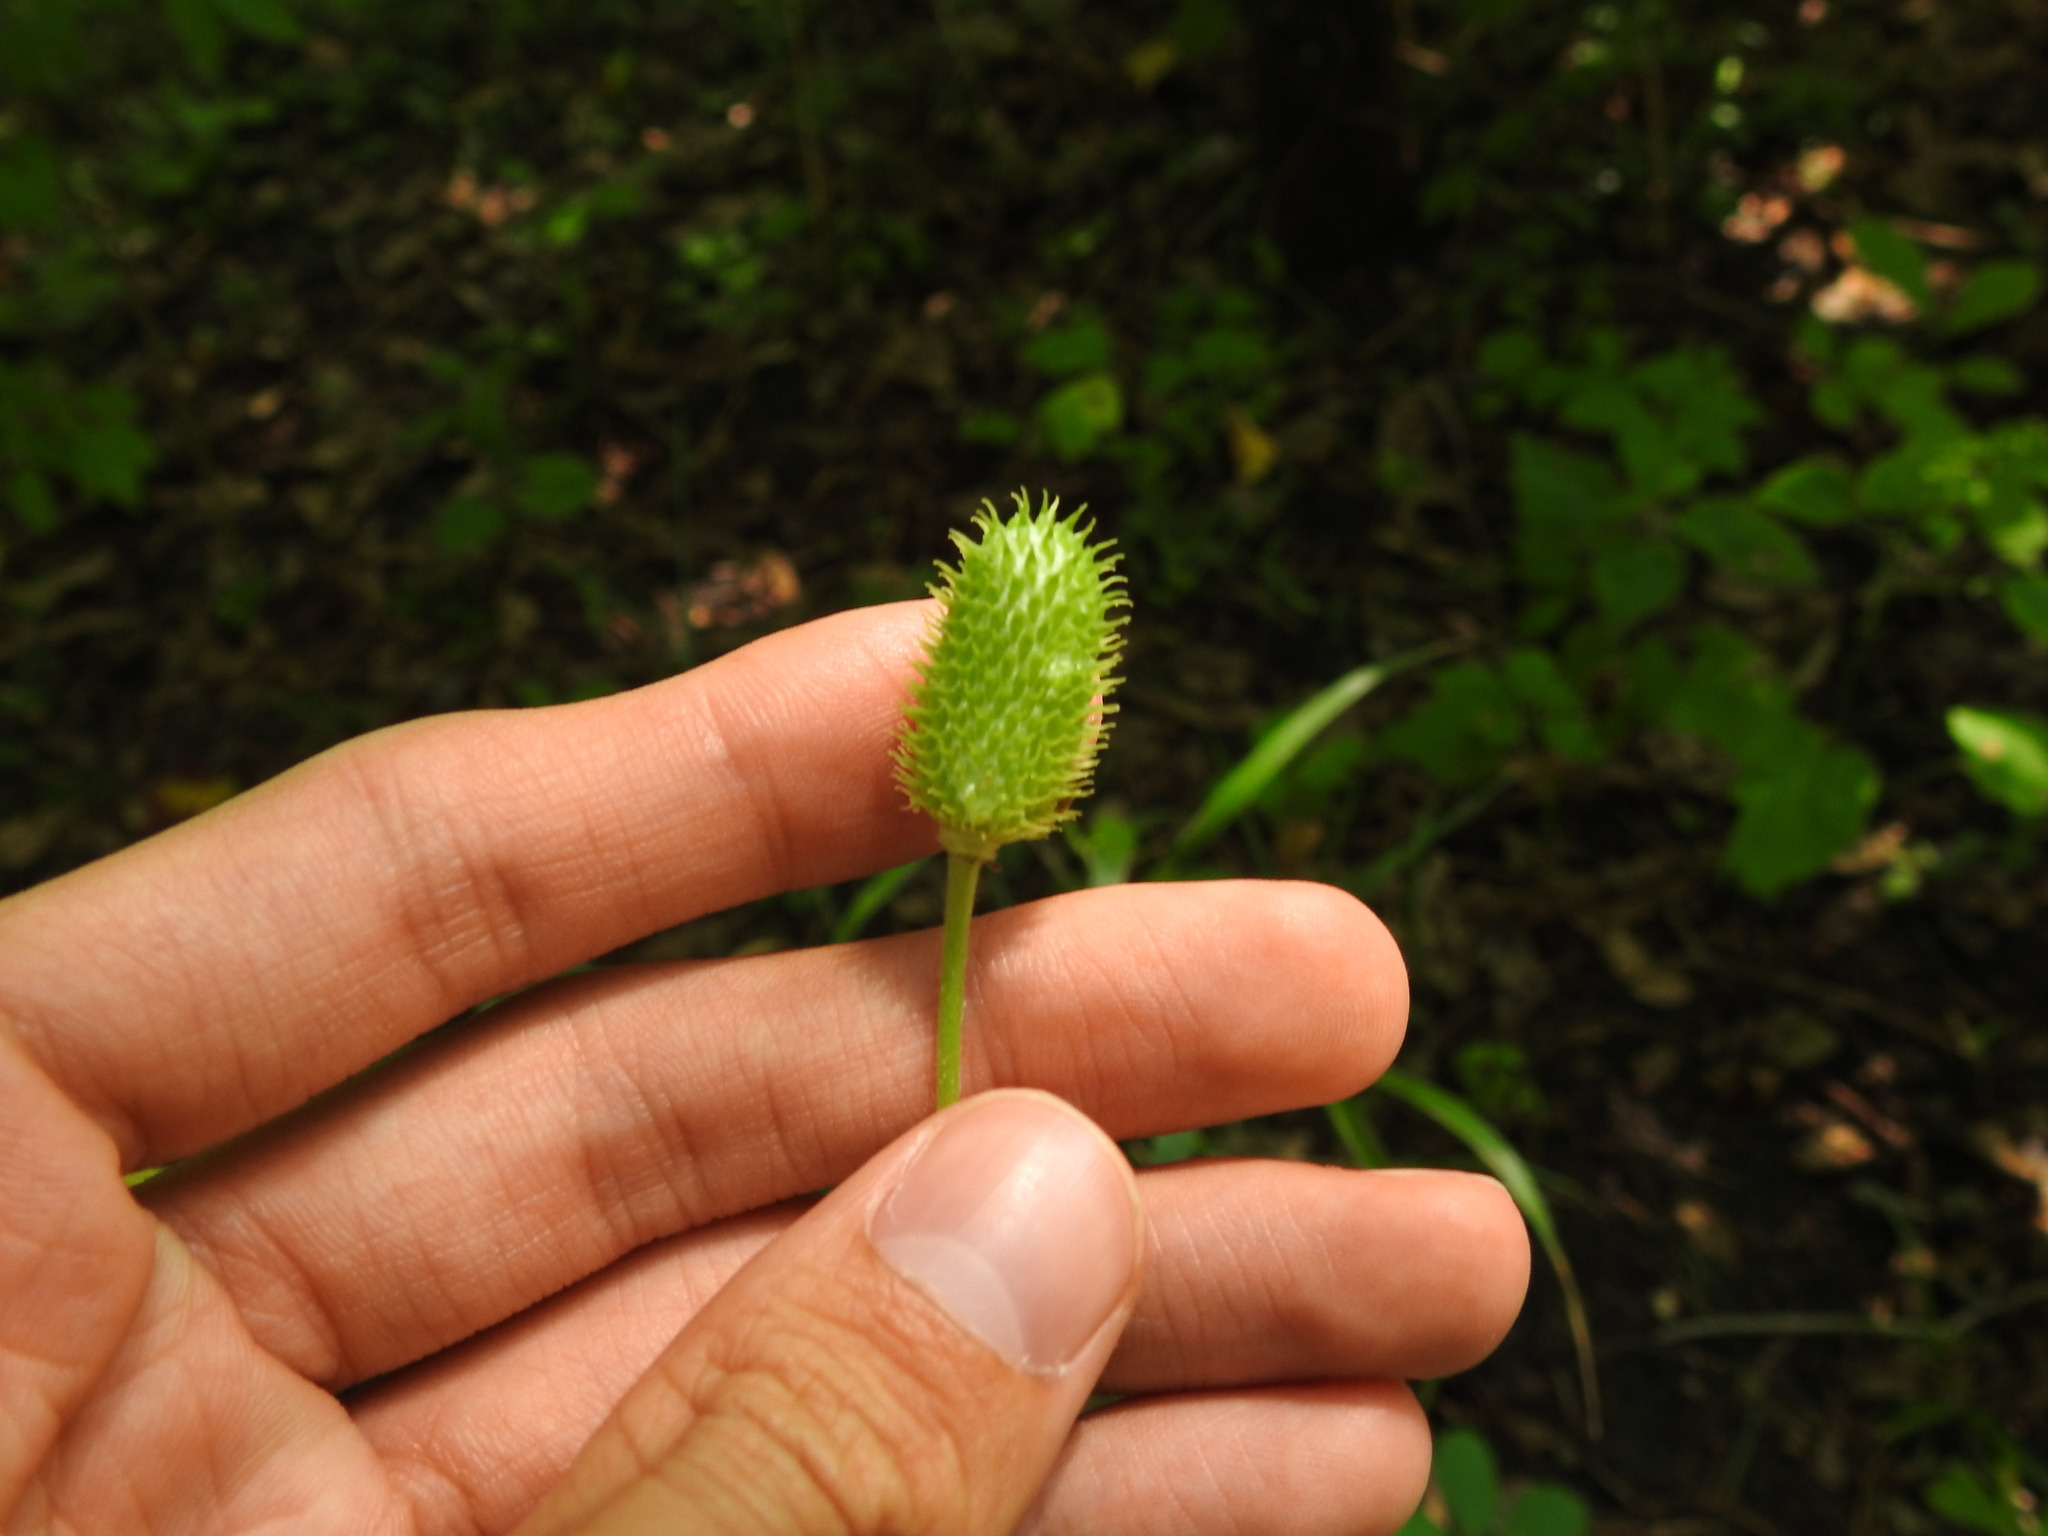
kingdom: Plantae
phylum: Tracheophyta
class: Magnoliopsida
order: Ranunculales
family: Ranunculaceae
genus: Anemone
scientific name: Anemone virginiana
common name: Tall anemone
